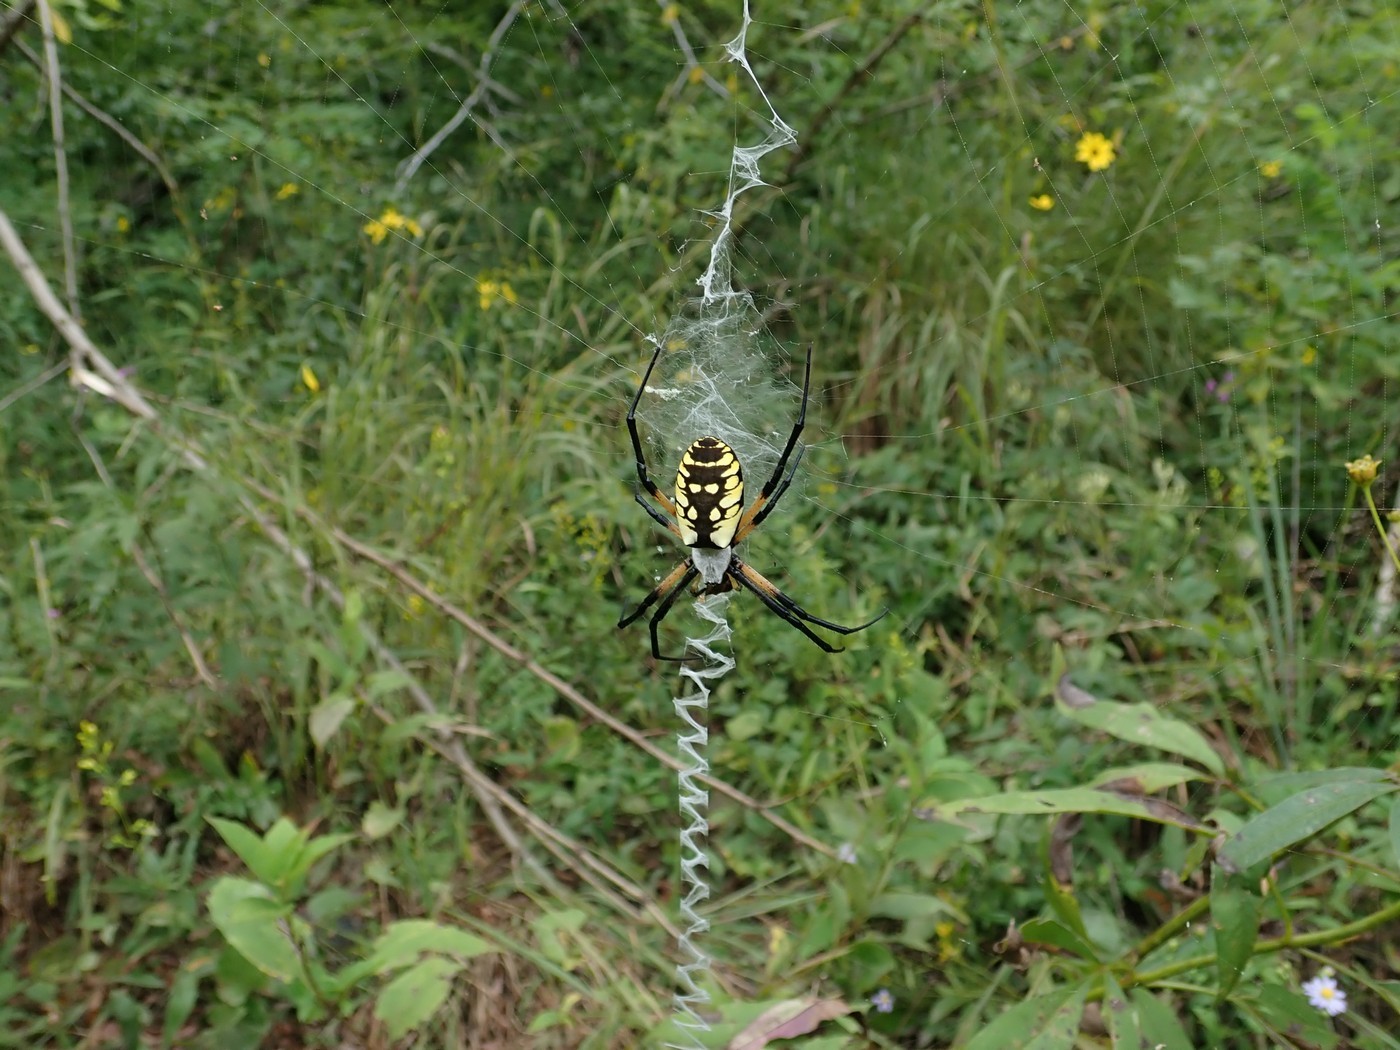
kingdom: Animalia
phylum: Arthropoda
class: Arachnida
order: Araneae
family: Araneidae
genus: Argiope
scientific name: Argiope aurantia
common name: Orb weavers
